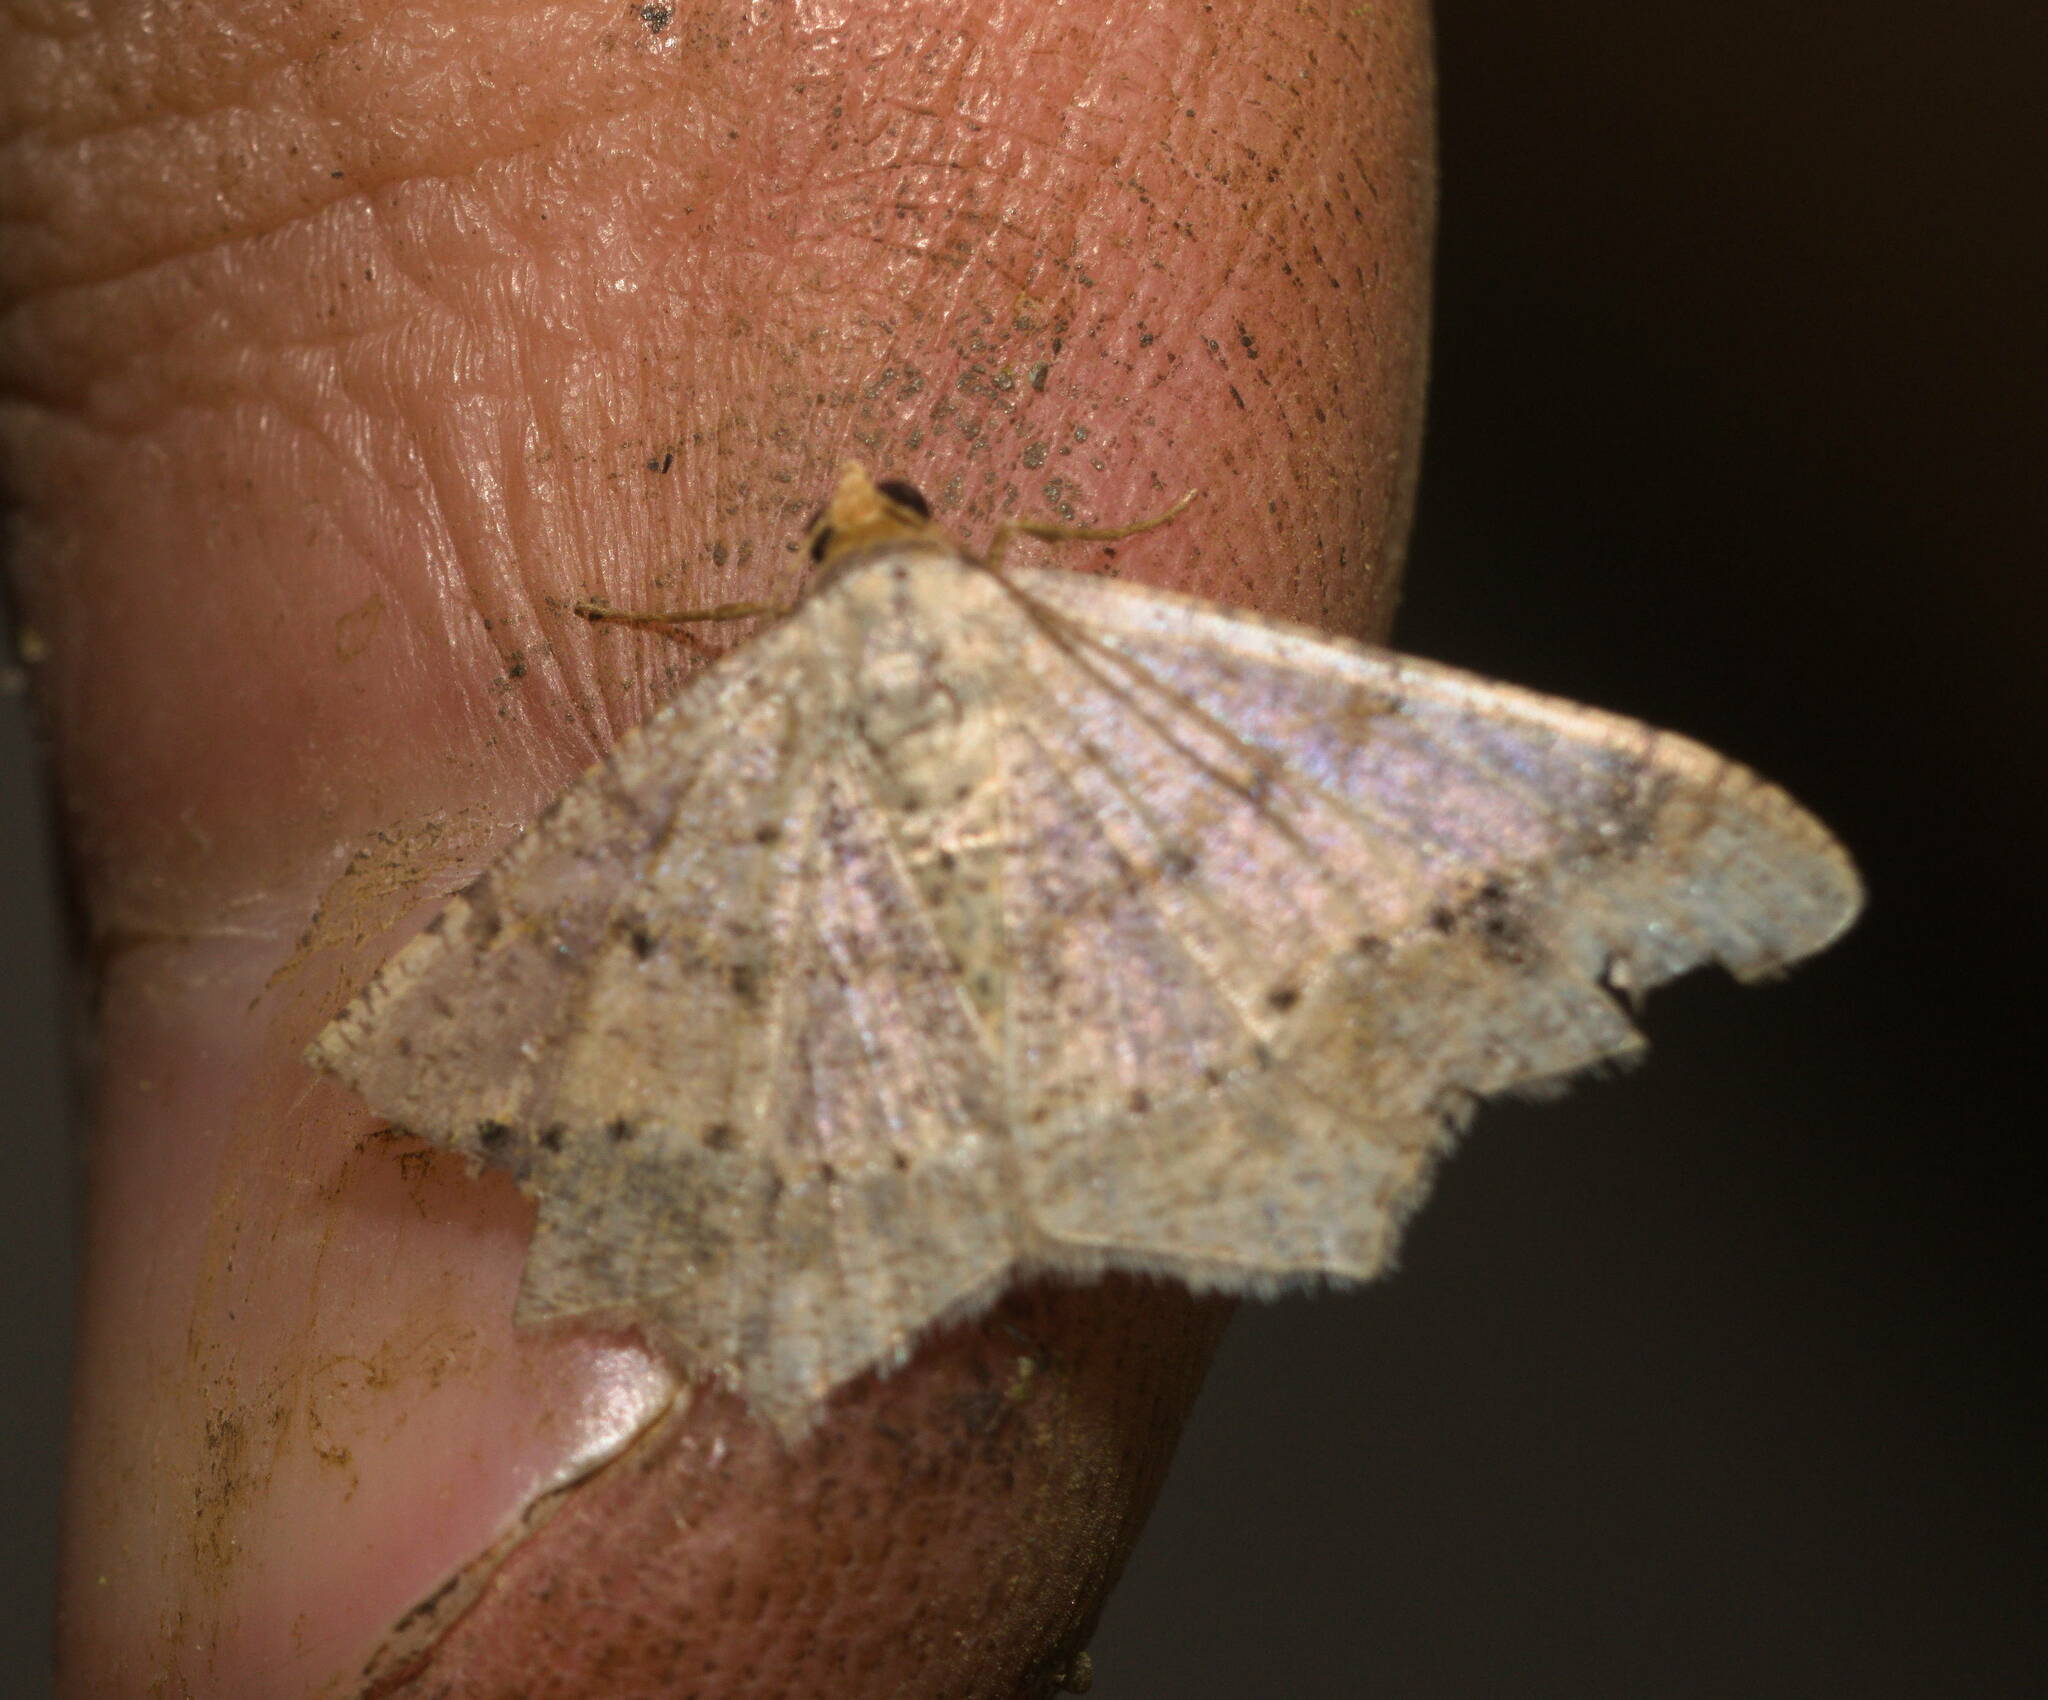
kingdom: Animalia
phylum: Arthropoda
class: Insecta
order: Lepidoptera
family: Geometridae
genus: Macaria
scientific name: Macaria abydata
